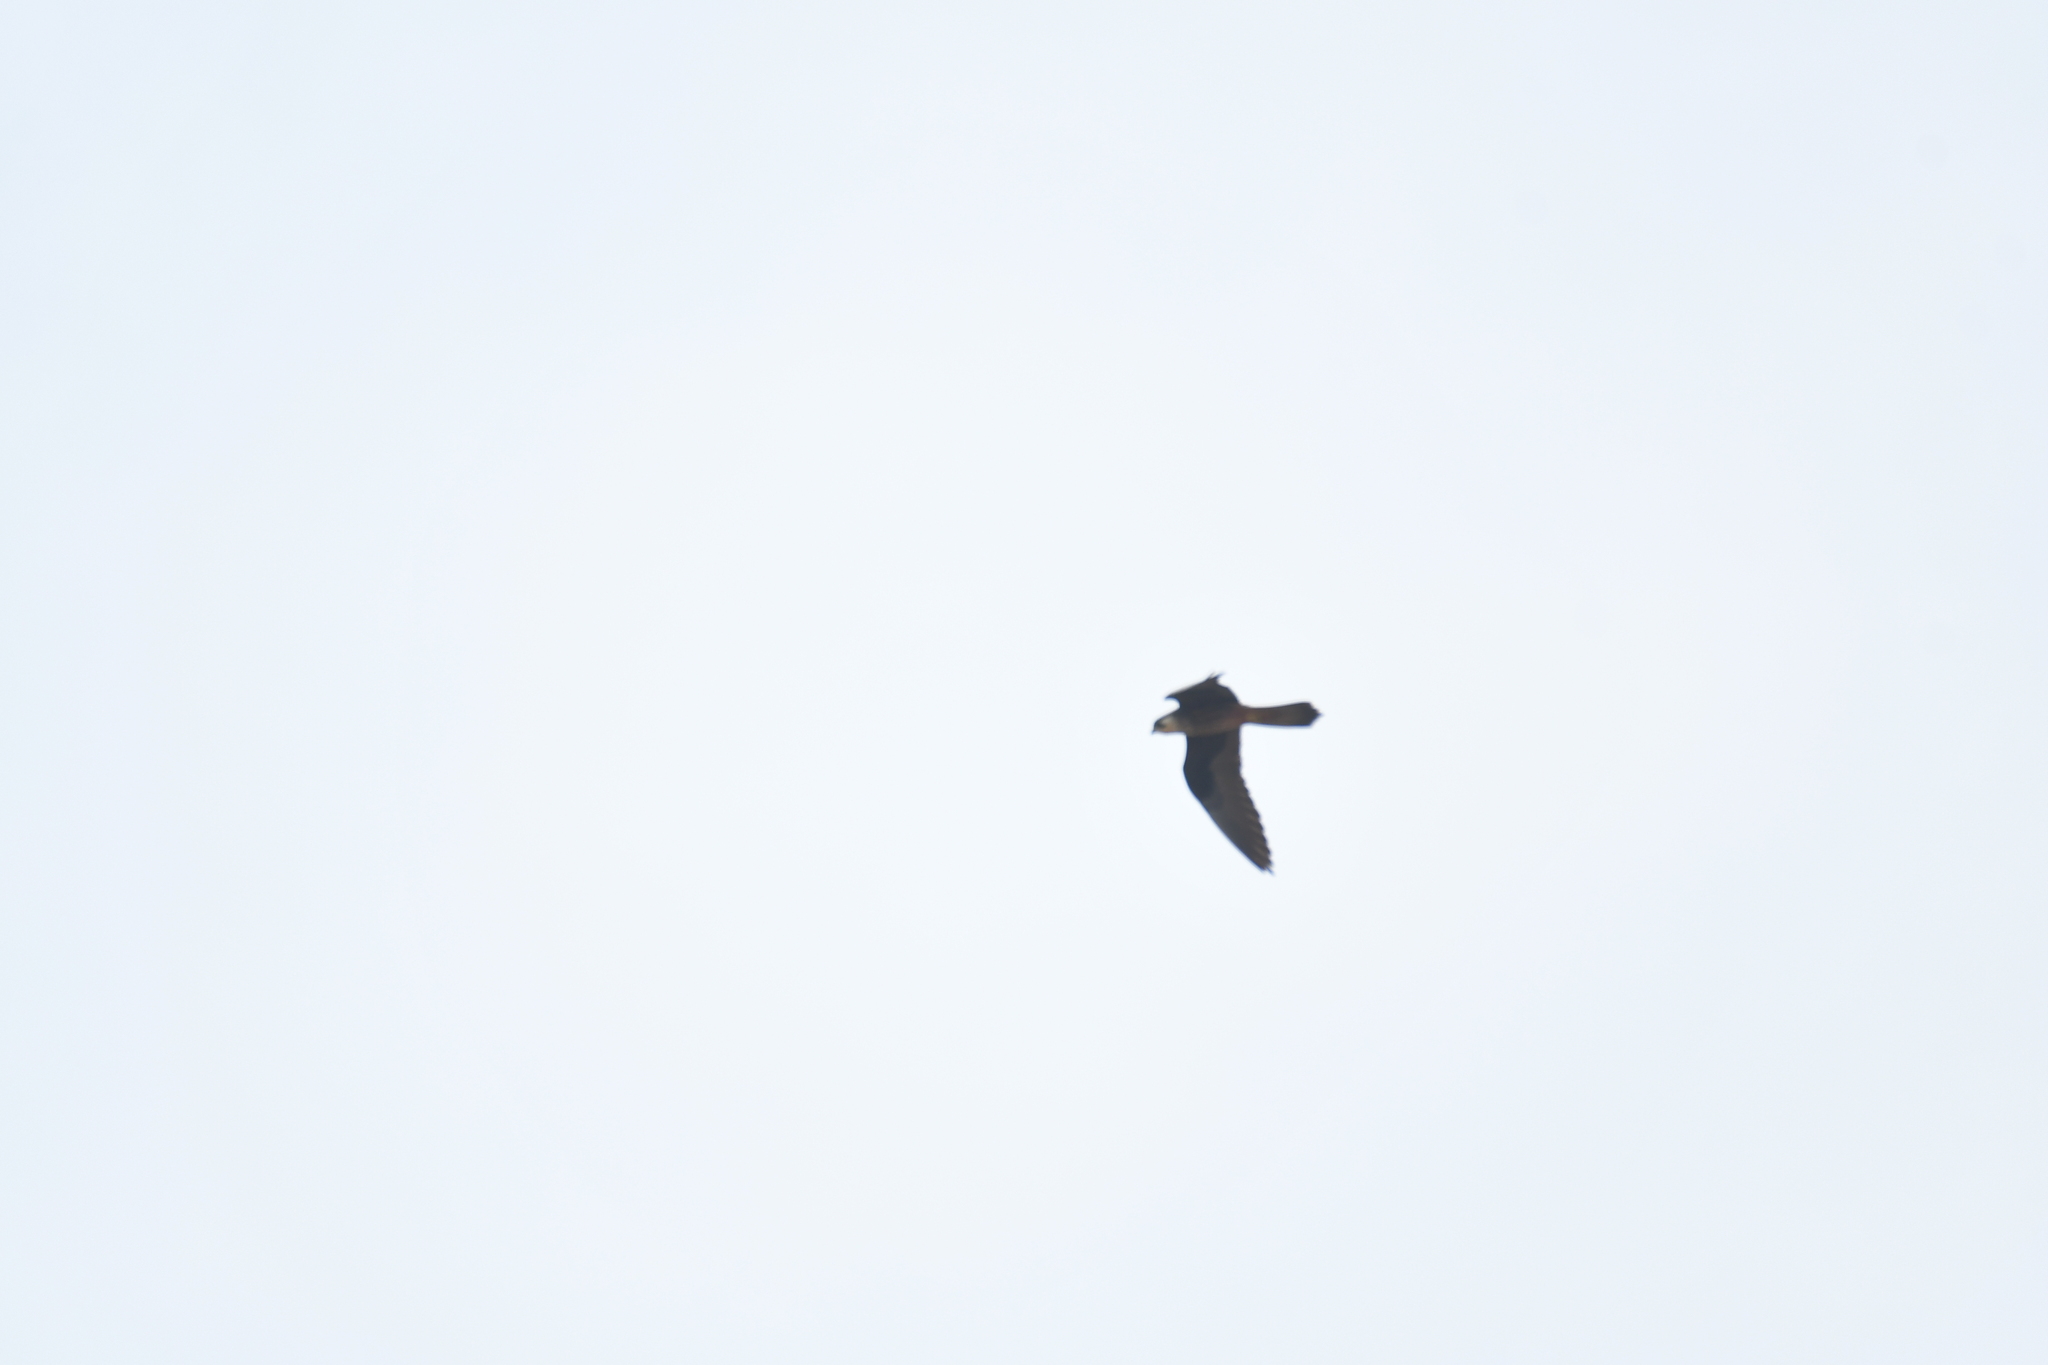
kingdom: Animalia
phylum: Chordata
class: Aves
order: Falconiformes
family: Falconidae
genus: Falco
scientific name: Falco eleonorae
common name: Eleonora's falcon
